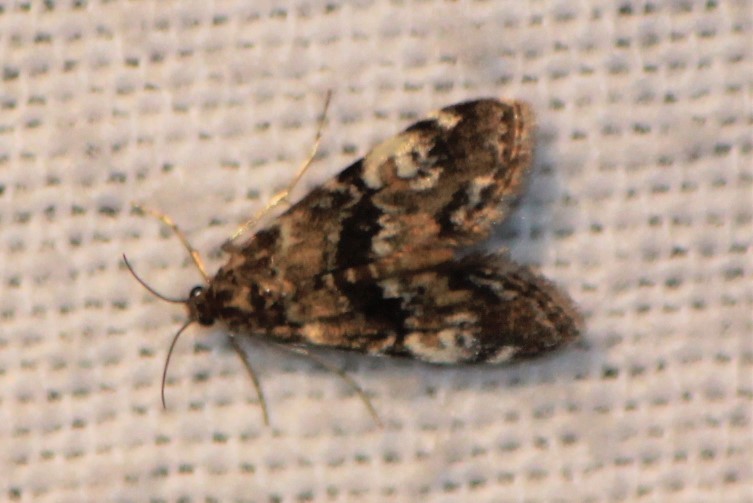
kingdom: Animalia
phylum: Arthropoda
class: Insecta
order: Lepidoptera
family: Crambidae
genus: Elophila
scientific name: Elophila obliteralis
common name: Waterlily leafcutter moth
